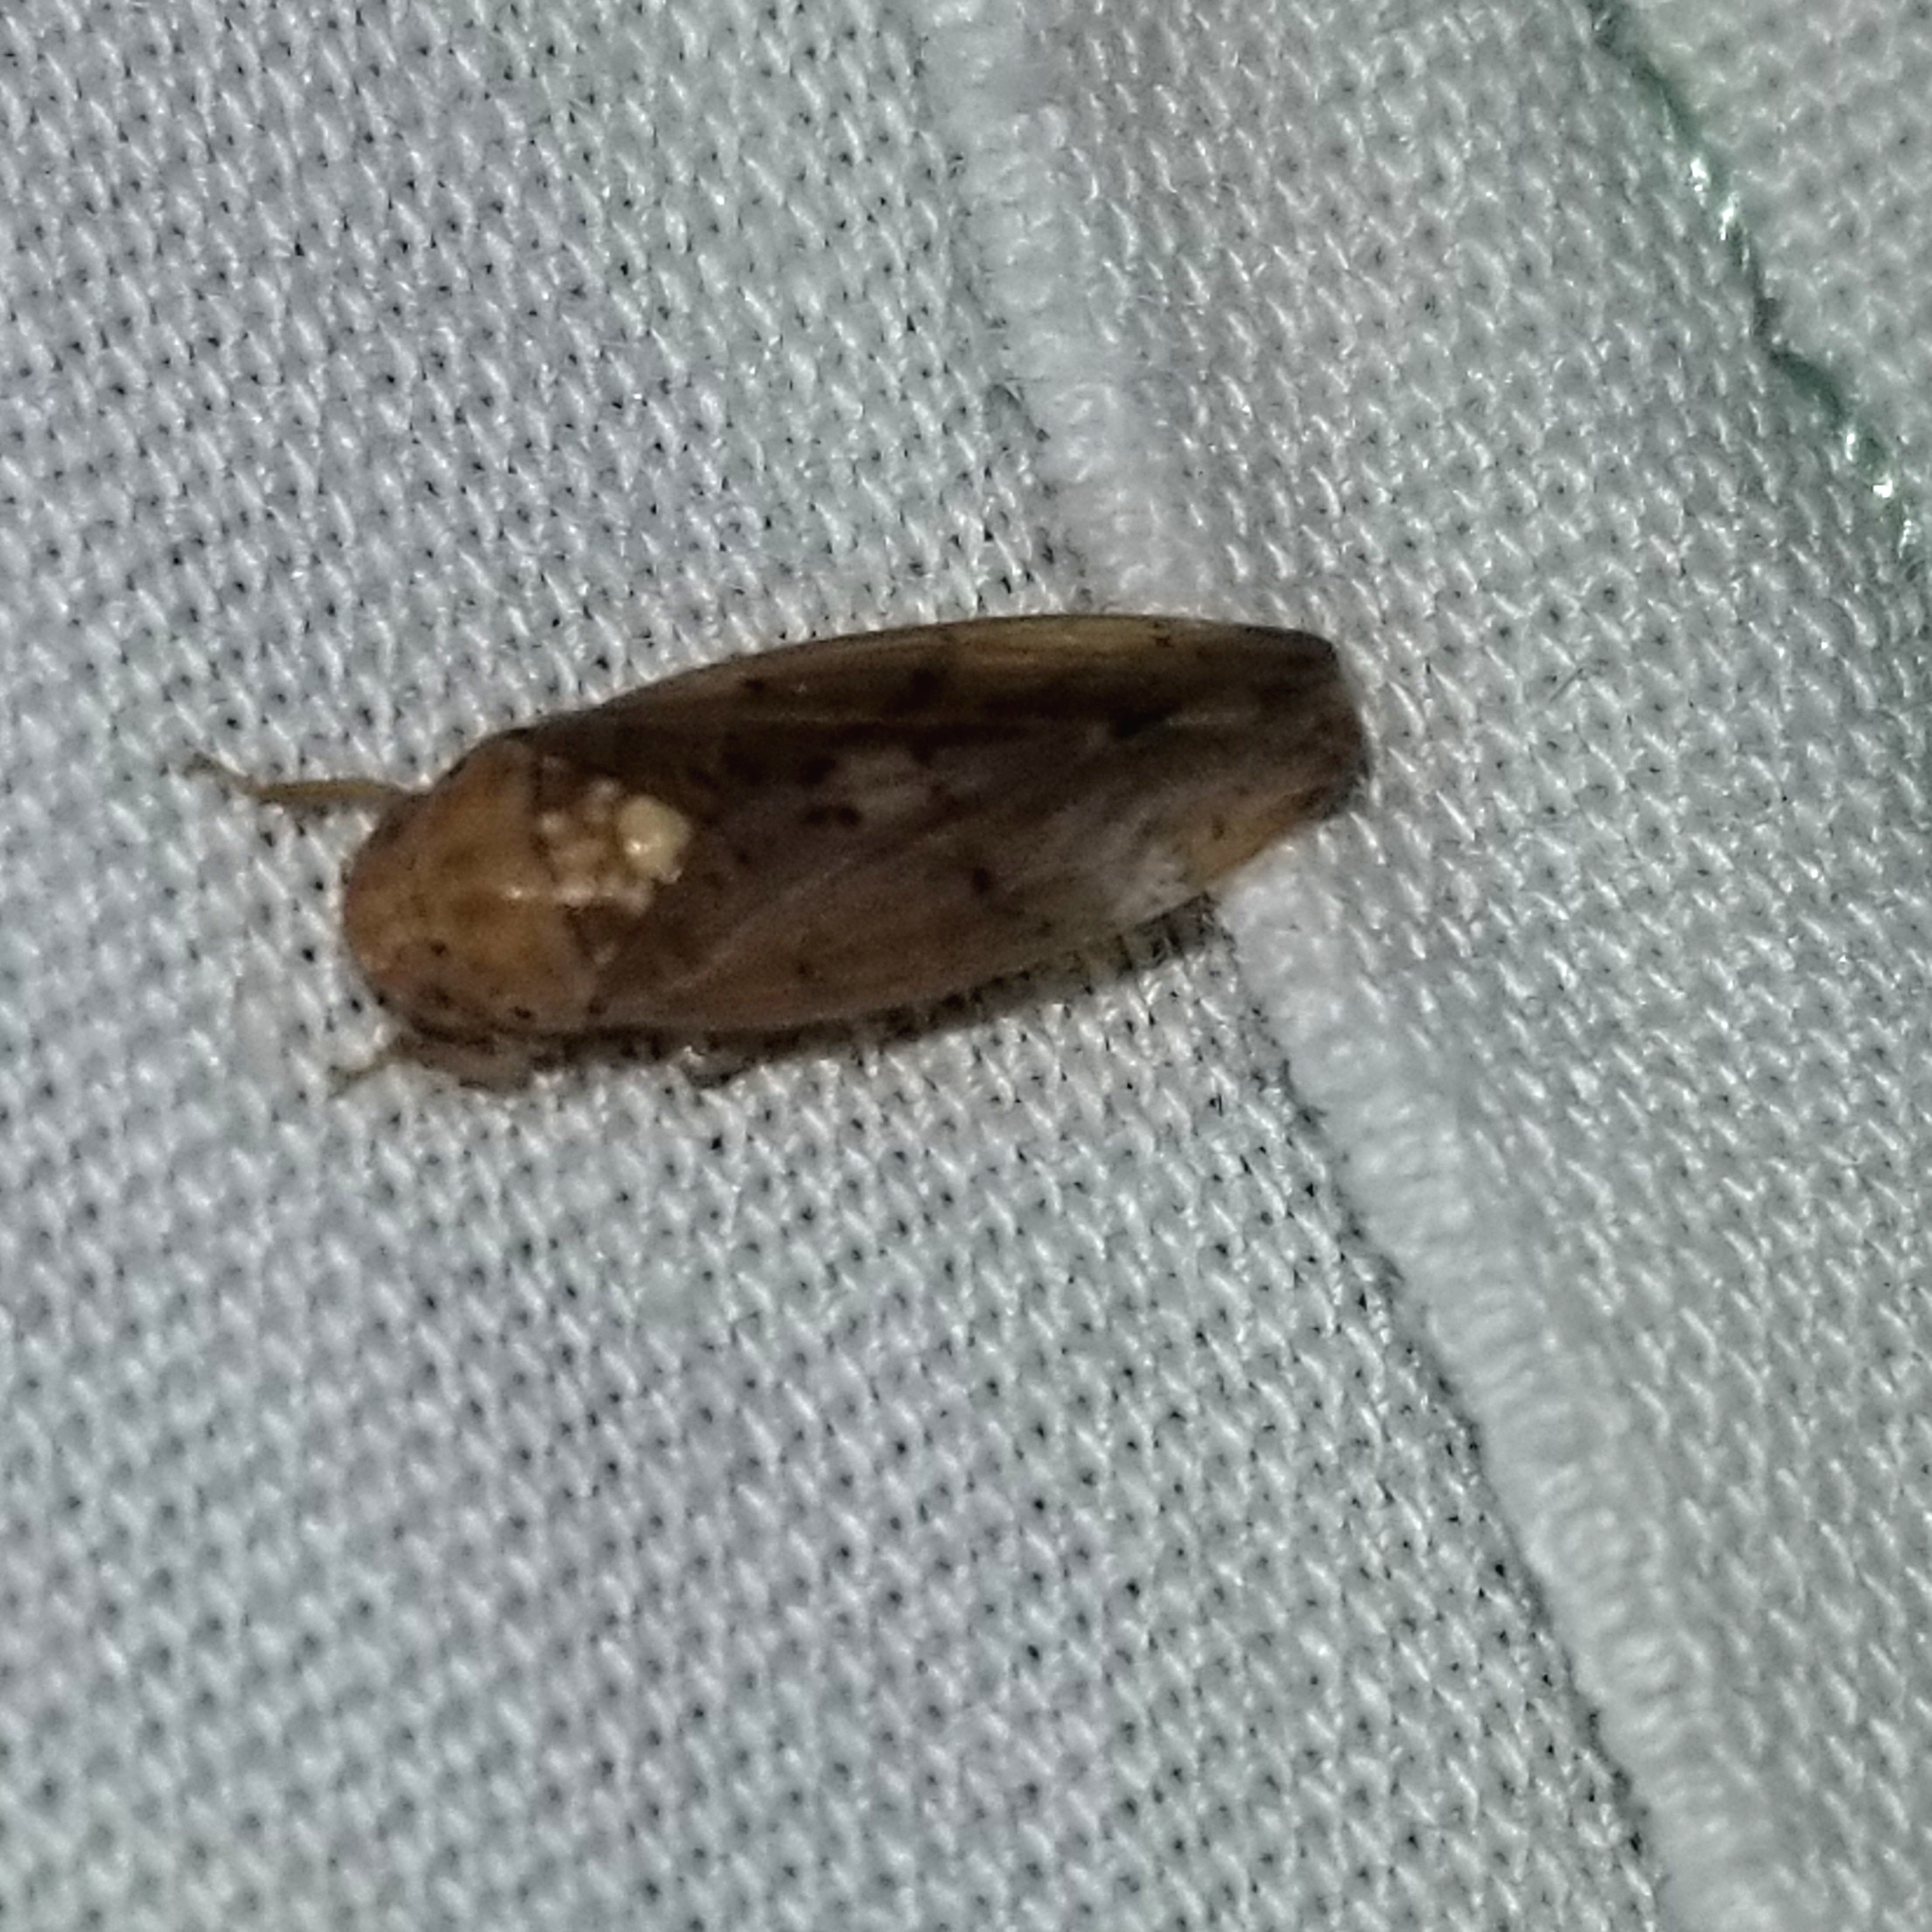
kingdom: Animalia
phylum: Arthropoda
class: Insecta
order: Hemiptera
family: Cicadellidae
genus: Ponana
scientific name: Ponana quadralaba
